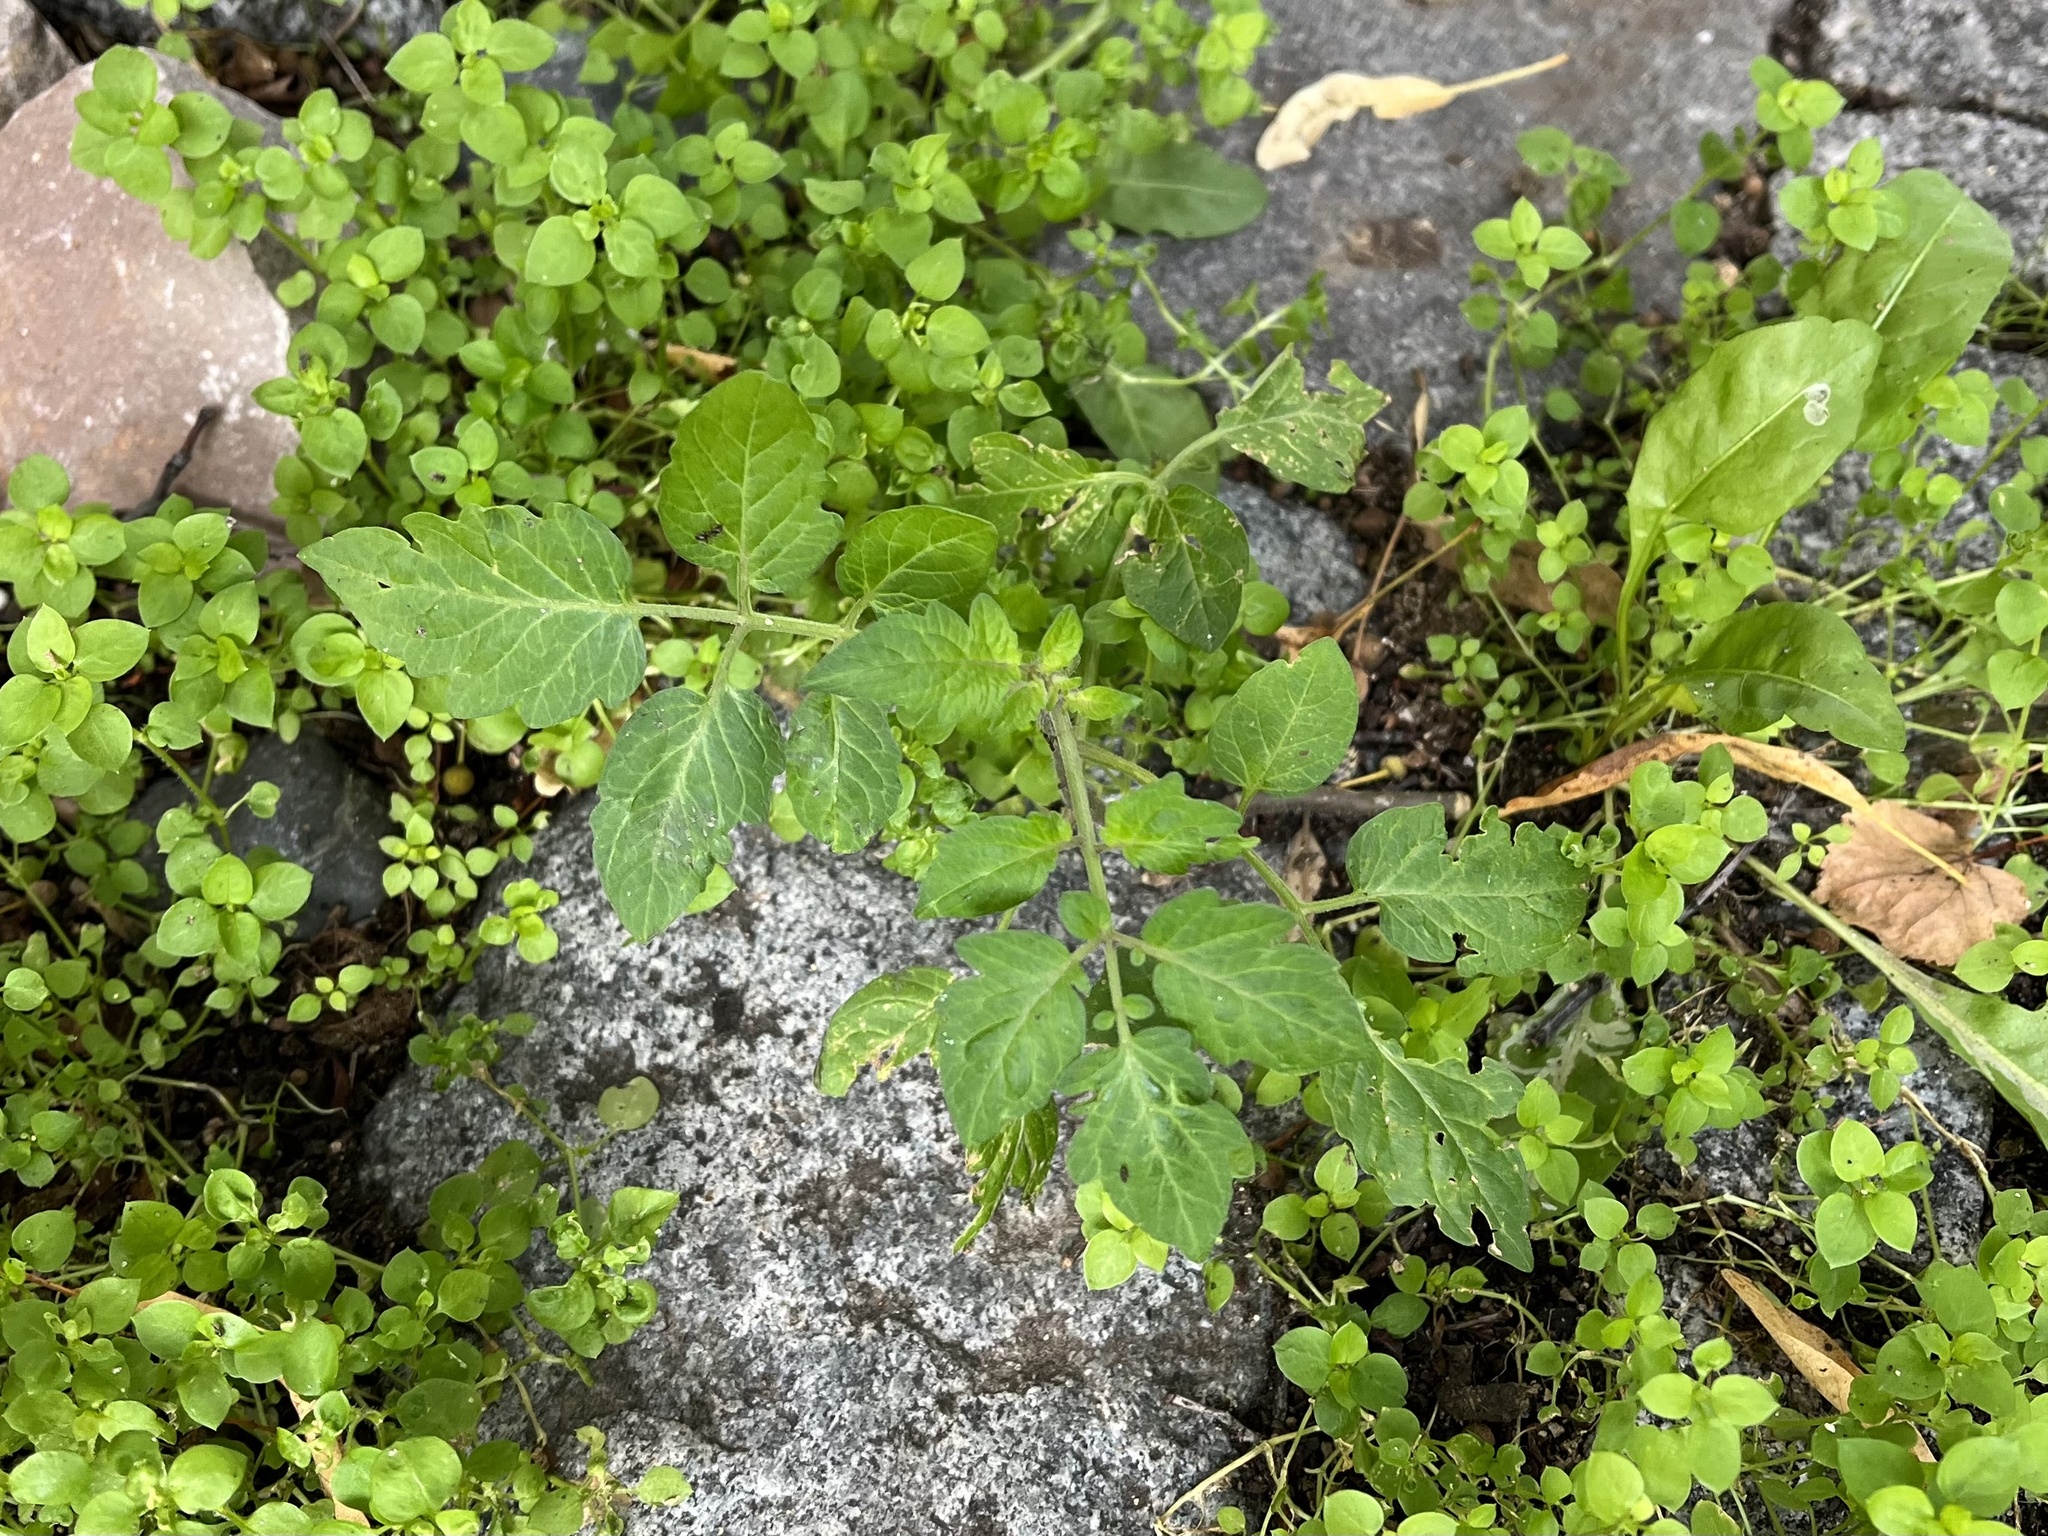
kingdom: Plantae
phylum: Tracheophyta
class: Magnoliopsida
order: Solanales
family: Solanaceae
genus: Solanum
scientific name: Solanum lycopersicum
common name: Garden tomato
